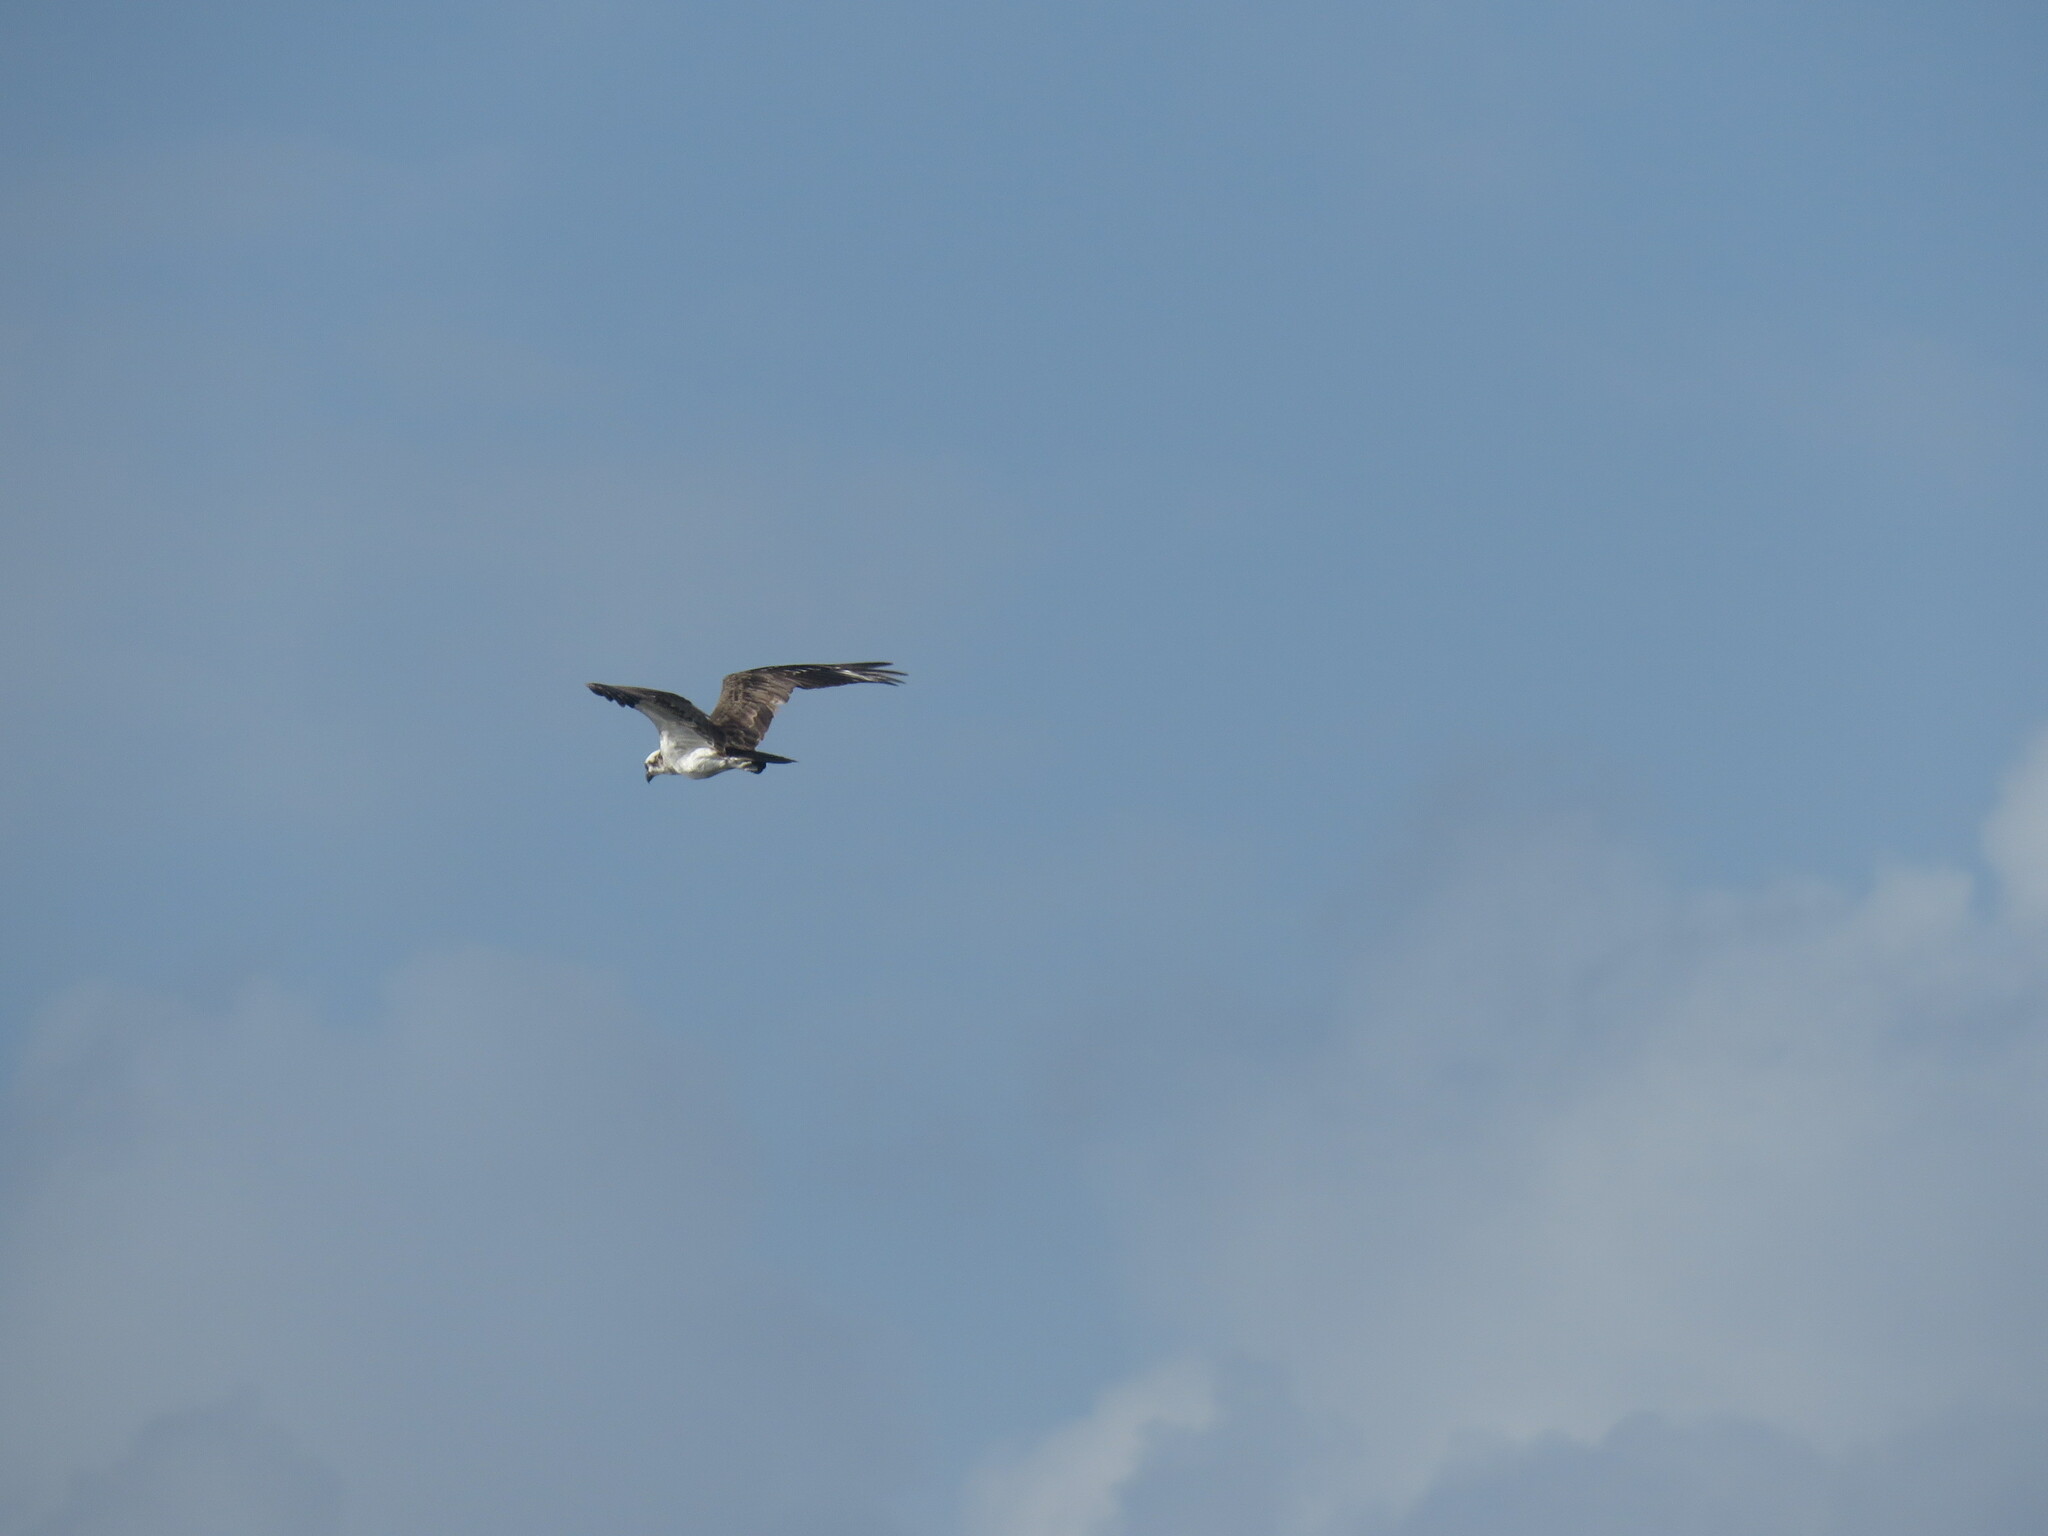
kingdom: Animalia
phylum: Chordata
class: Aves
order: Accipitriformes
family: Pandionidae
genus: Pandion
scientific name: Pandion haliaetus
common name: Osprey
